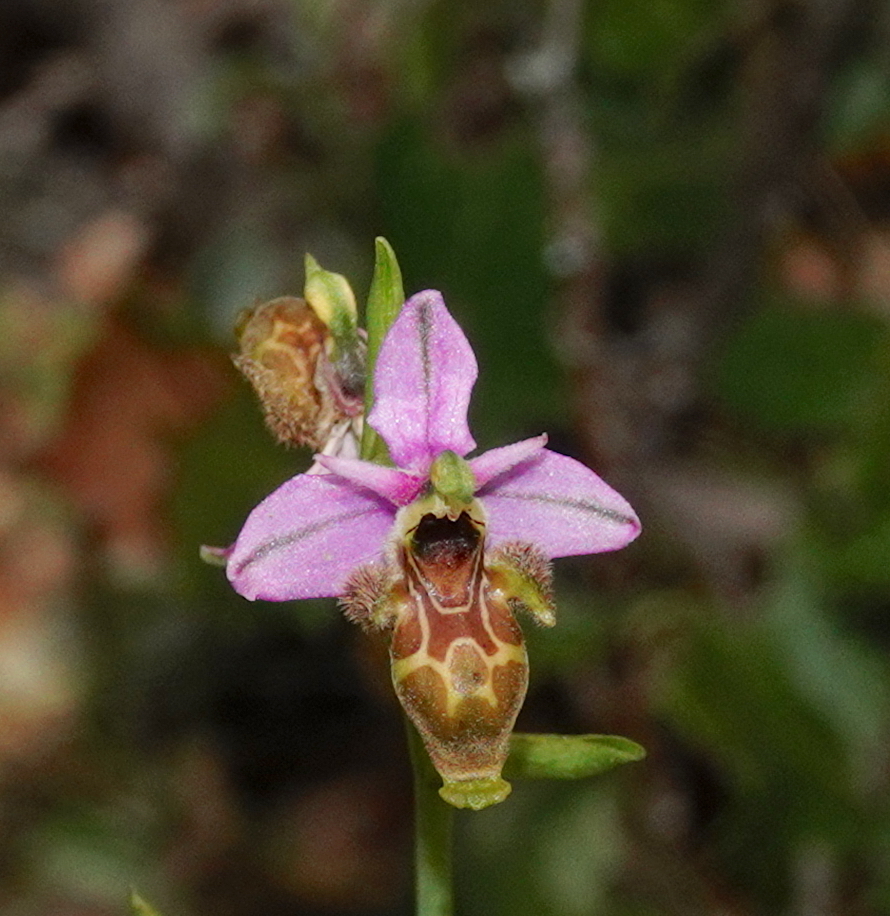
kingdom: Plantae
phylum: Tracheophyta
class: Liliopsida
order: Asparagales
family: Orchidaceae
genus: Ophrys
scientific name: Ophrys scolopax
